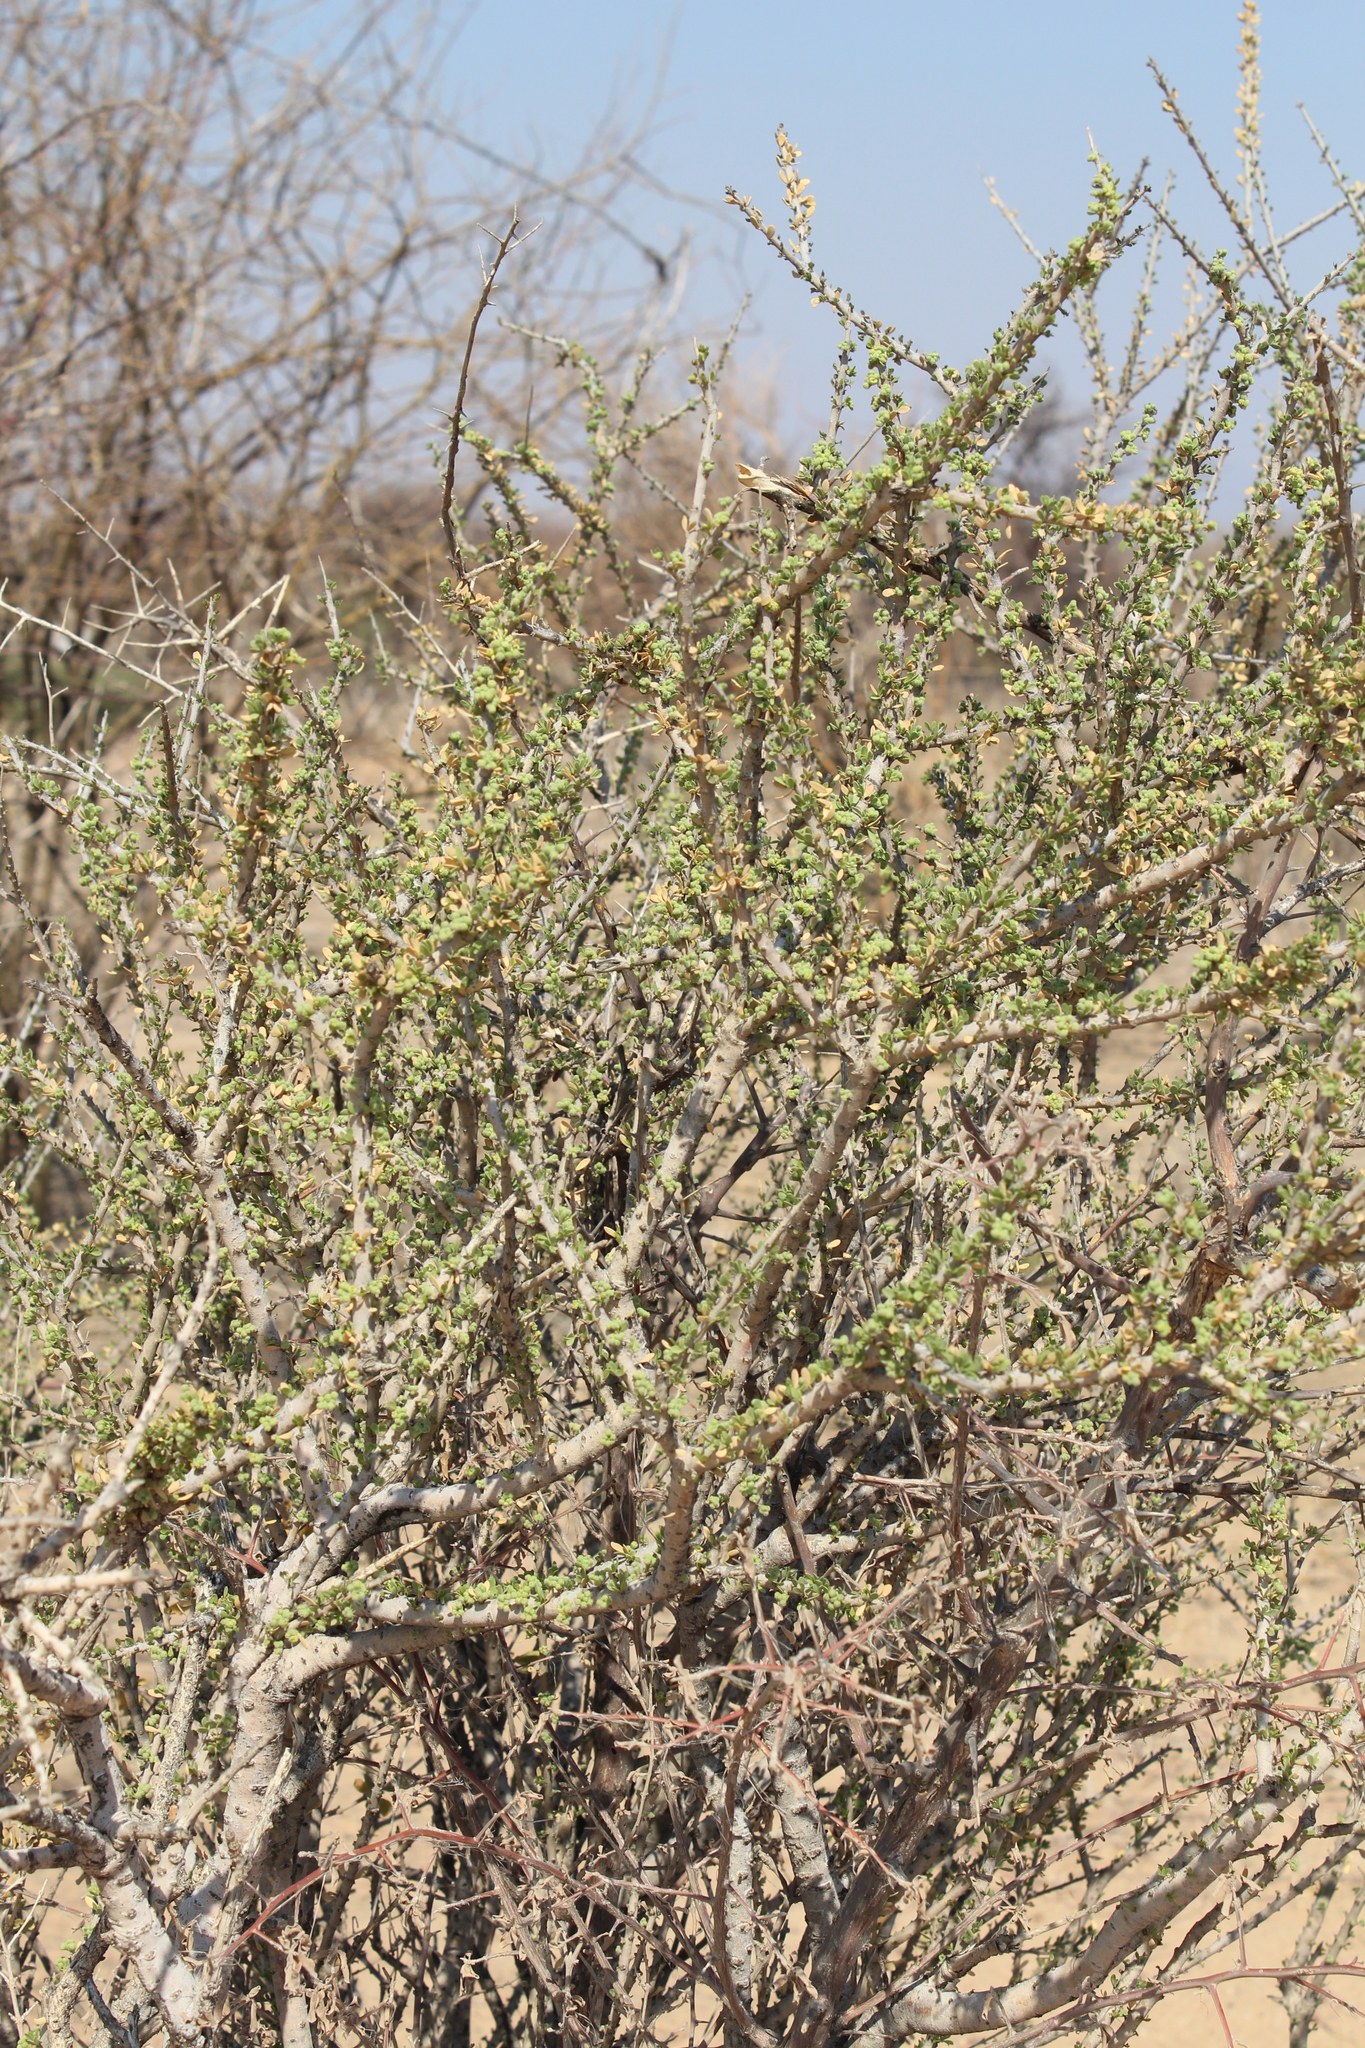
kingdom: Plantae
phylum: Tracheophyta
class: Magnoliopsida
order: Brassicales
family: Capparaceae
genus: Boscia
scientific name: Boscia foetida
